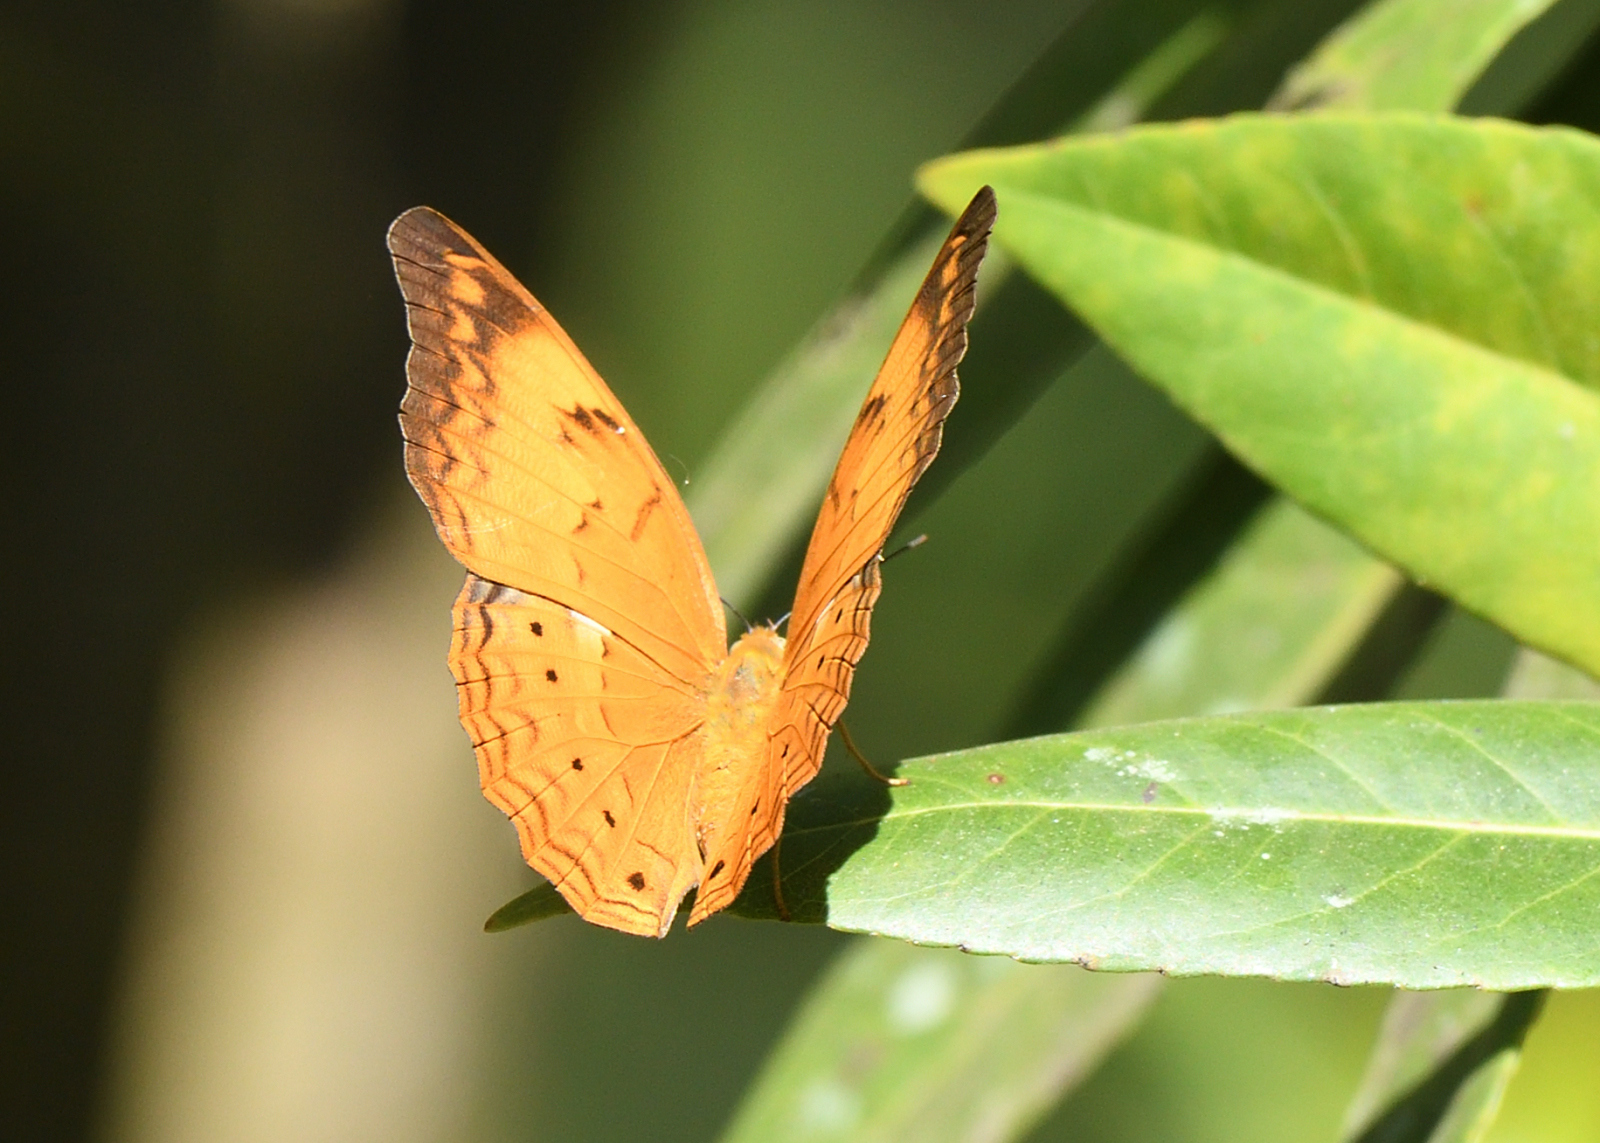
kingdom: Animalia
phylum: Arthropoda
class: Insecta
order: Lepidoptera
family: Nymphalidae
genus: Cirrochroa
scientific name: Cirrochroa thais
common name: Tamil yeoman
